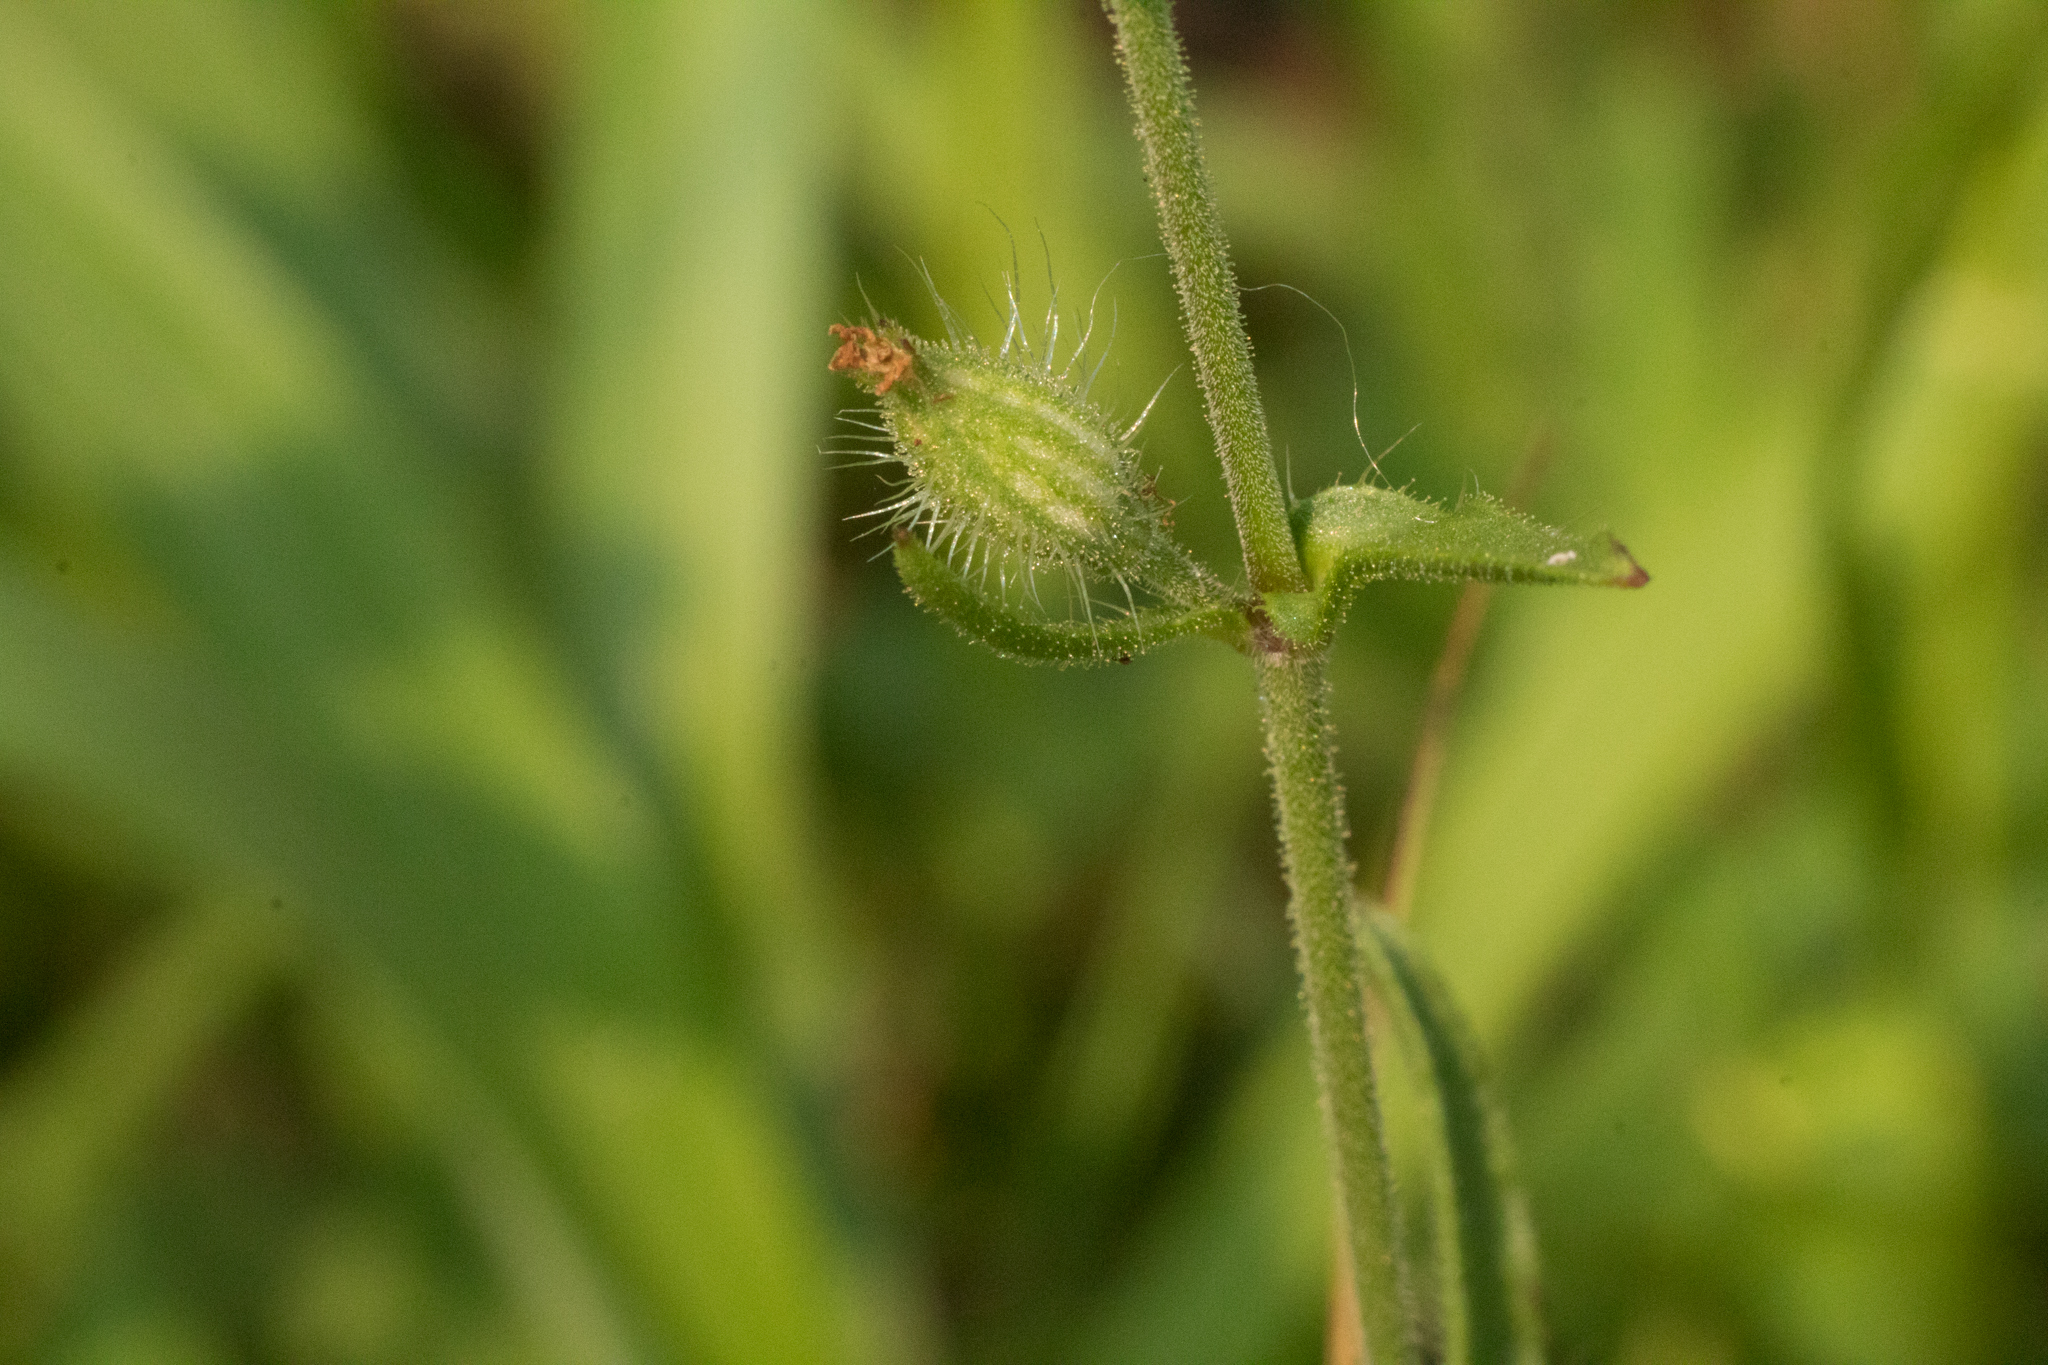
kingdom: Plantae
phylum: Tracheophyta
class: Magnoliopsida
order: Caryophyllales
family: Caryophyllaceae
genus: Silene
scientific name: Silene gallica
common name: Small-flowered catchfly
